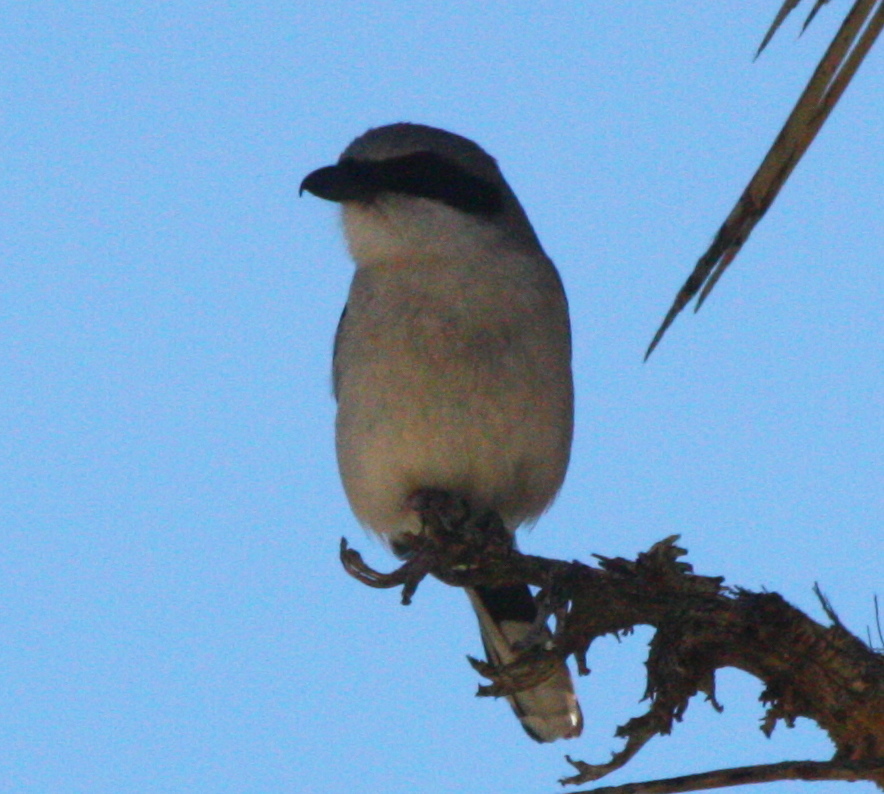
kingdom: Animalia
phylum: Chordata
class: Aves
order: Passeriformes
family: Laniidae
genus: Lanius
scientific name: Lanius ludovicianus
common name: Loggerhead shrike
